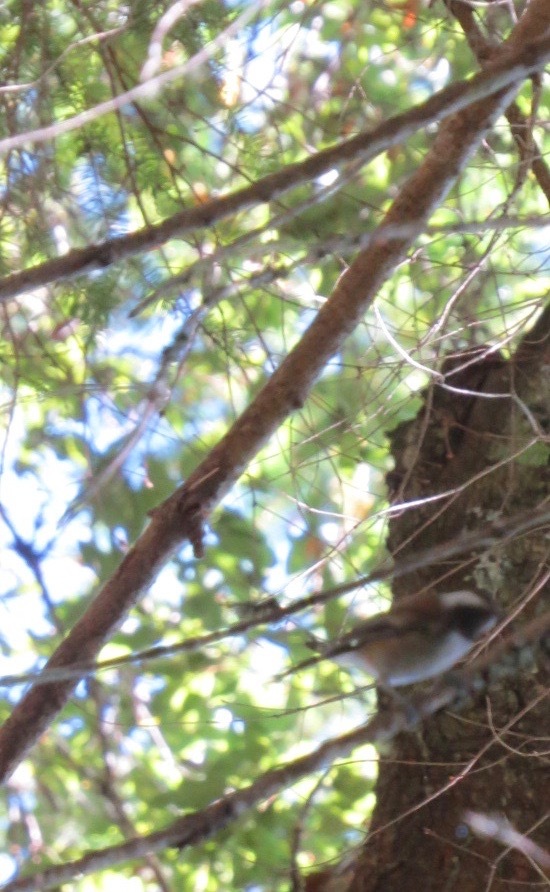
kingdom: Animalia
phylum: Chordata
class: Aves
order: Passeriformes
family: Paridae
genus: Poecile
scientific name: Poecile rufescens
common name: Chestnut-backed chickadee
